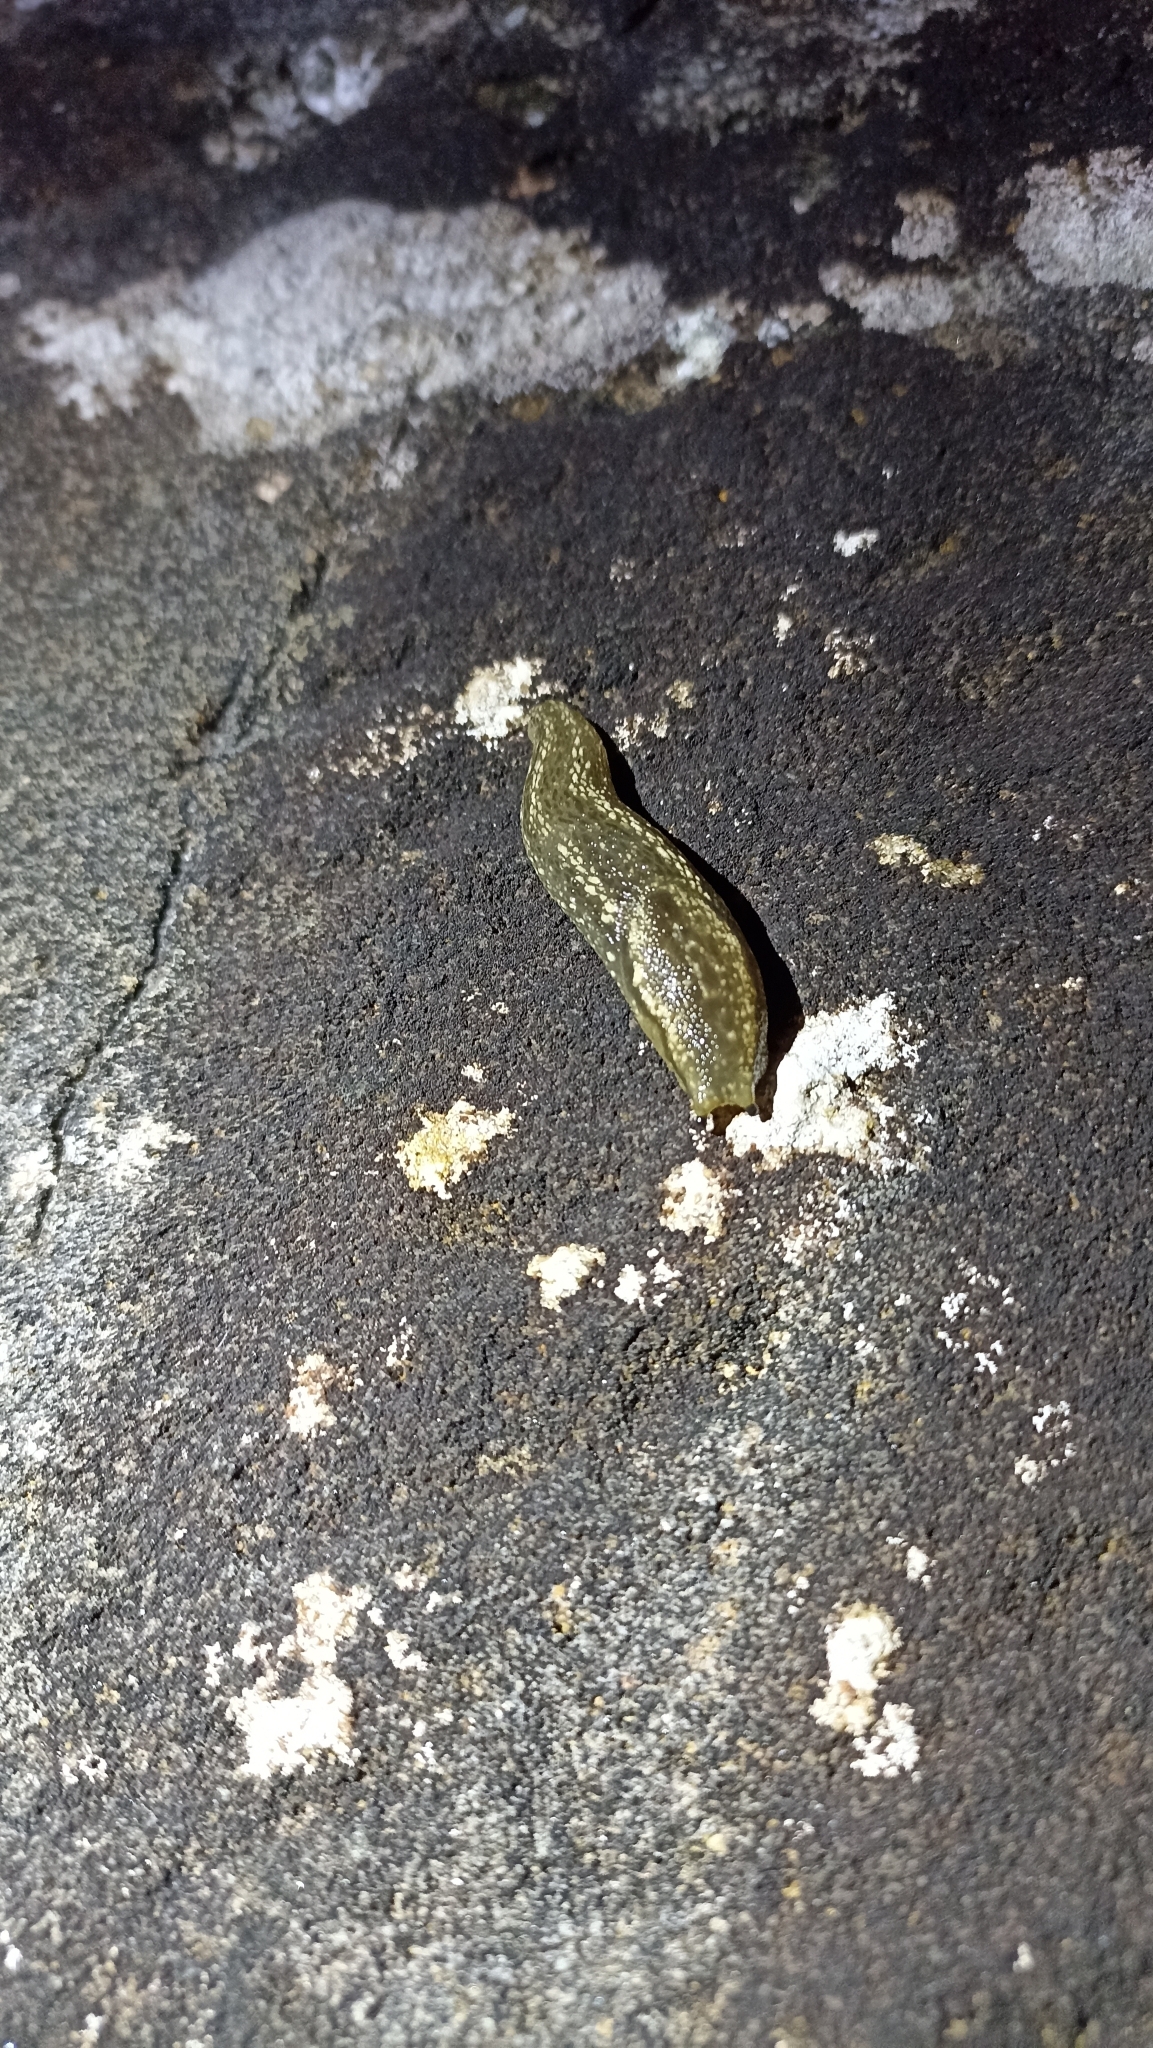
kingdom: Animalia
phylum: Mollusca
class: Gastropoda
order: Stylommatophora
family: Arionidae
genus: Geomalacus
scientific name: Geomalacus maculosus
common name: Kerry slug
